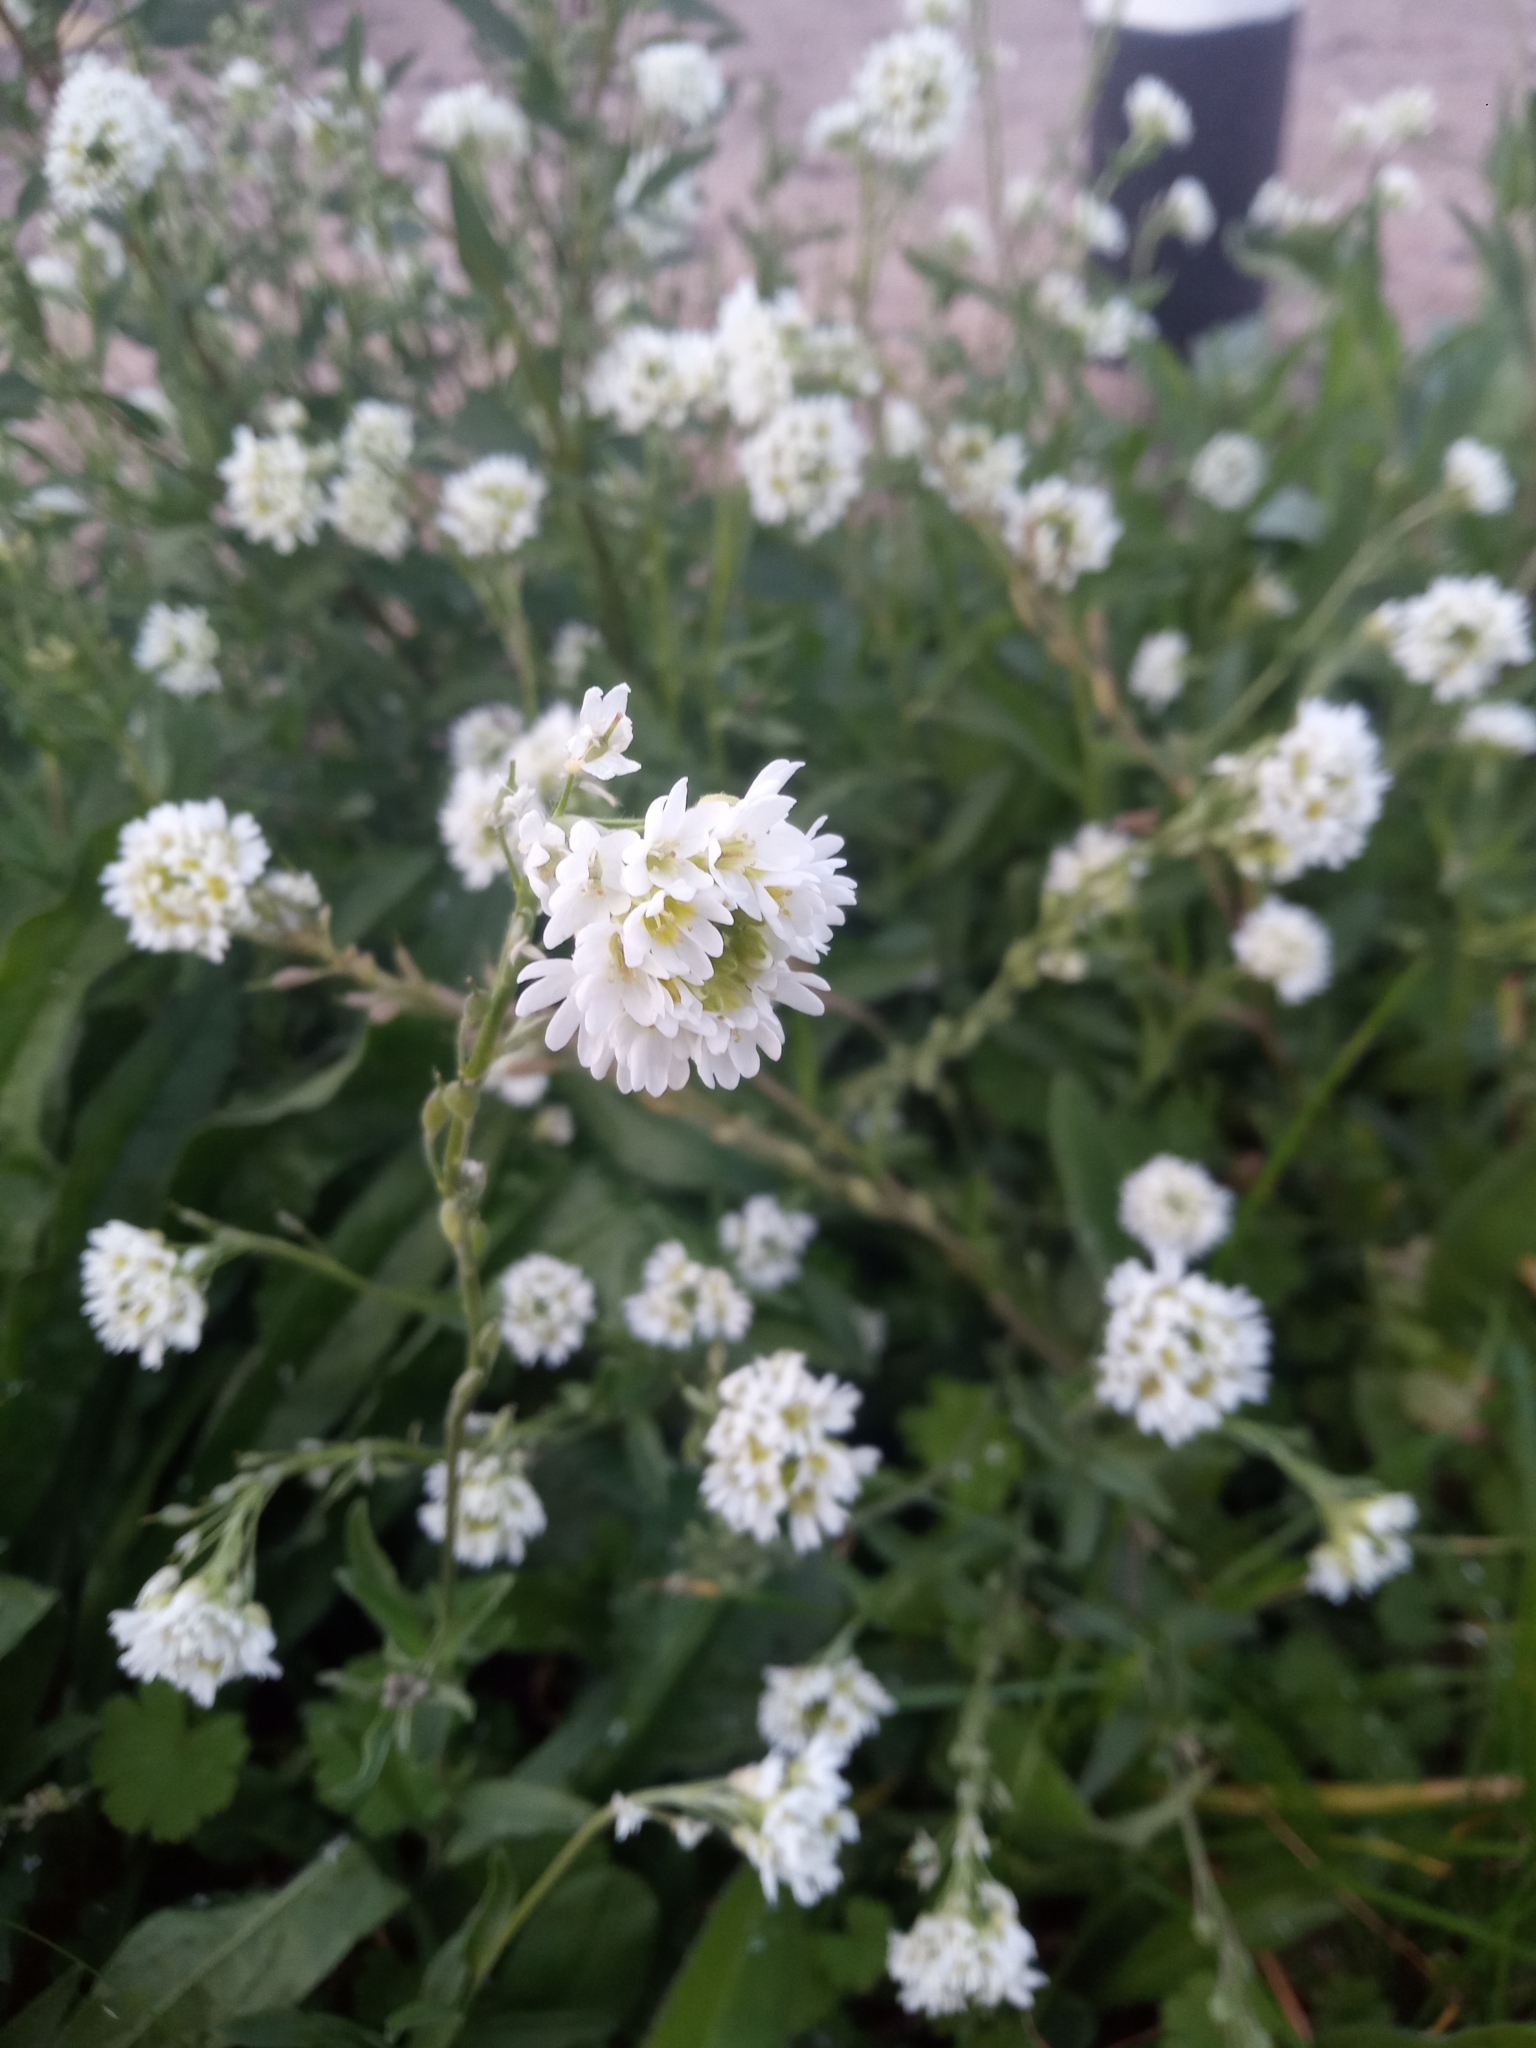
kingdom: Plantae
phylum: Tracheophyta
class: Magnoliopsida
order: Brassicales
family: Brassicaceae
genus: Berteroa
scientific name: Berteroa incana
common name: Hoary alison
